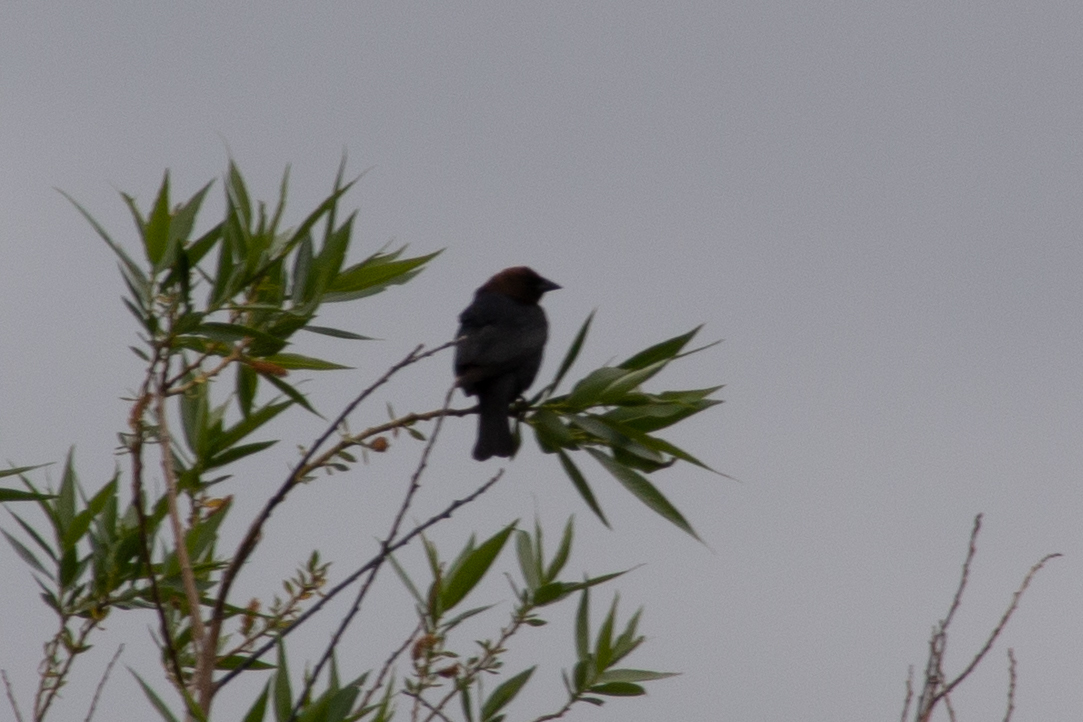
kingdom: Animalia
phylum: Chordata
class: Aves
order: Passeriformes
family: Icteridae
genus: Molothrus
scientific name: Molothrus ater
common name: Brown-headed cowbird
